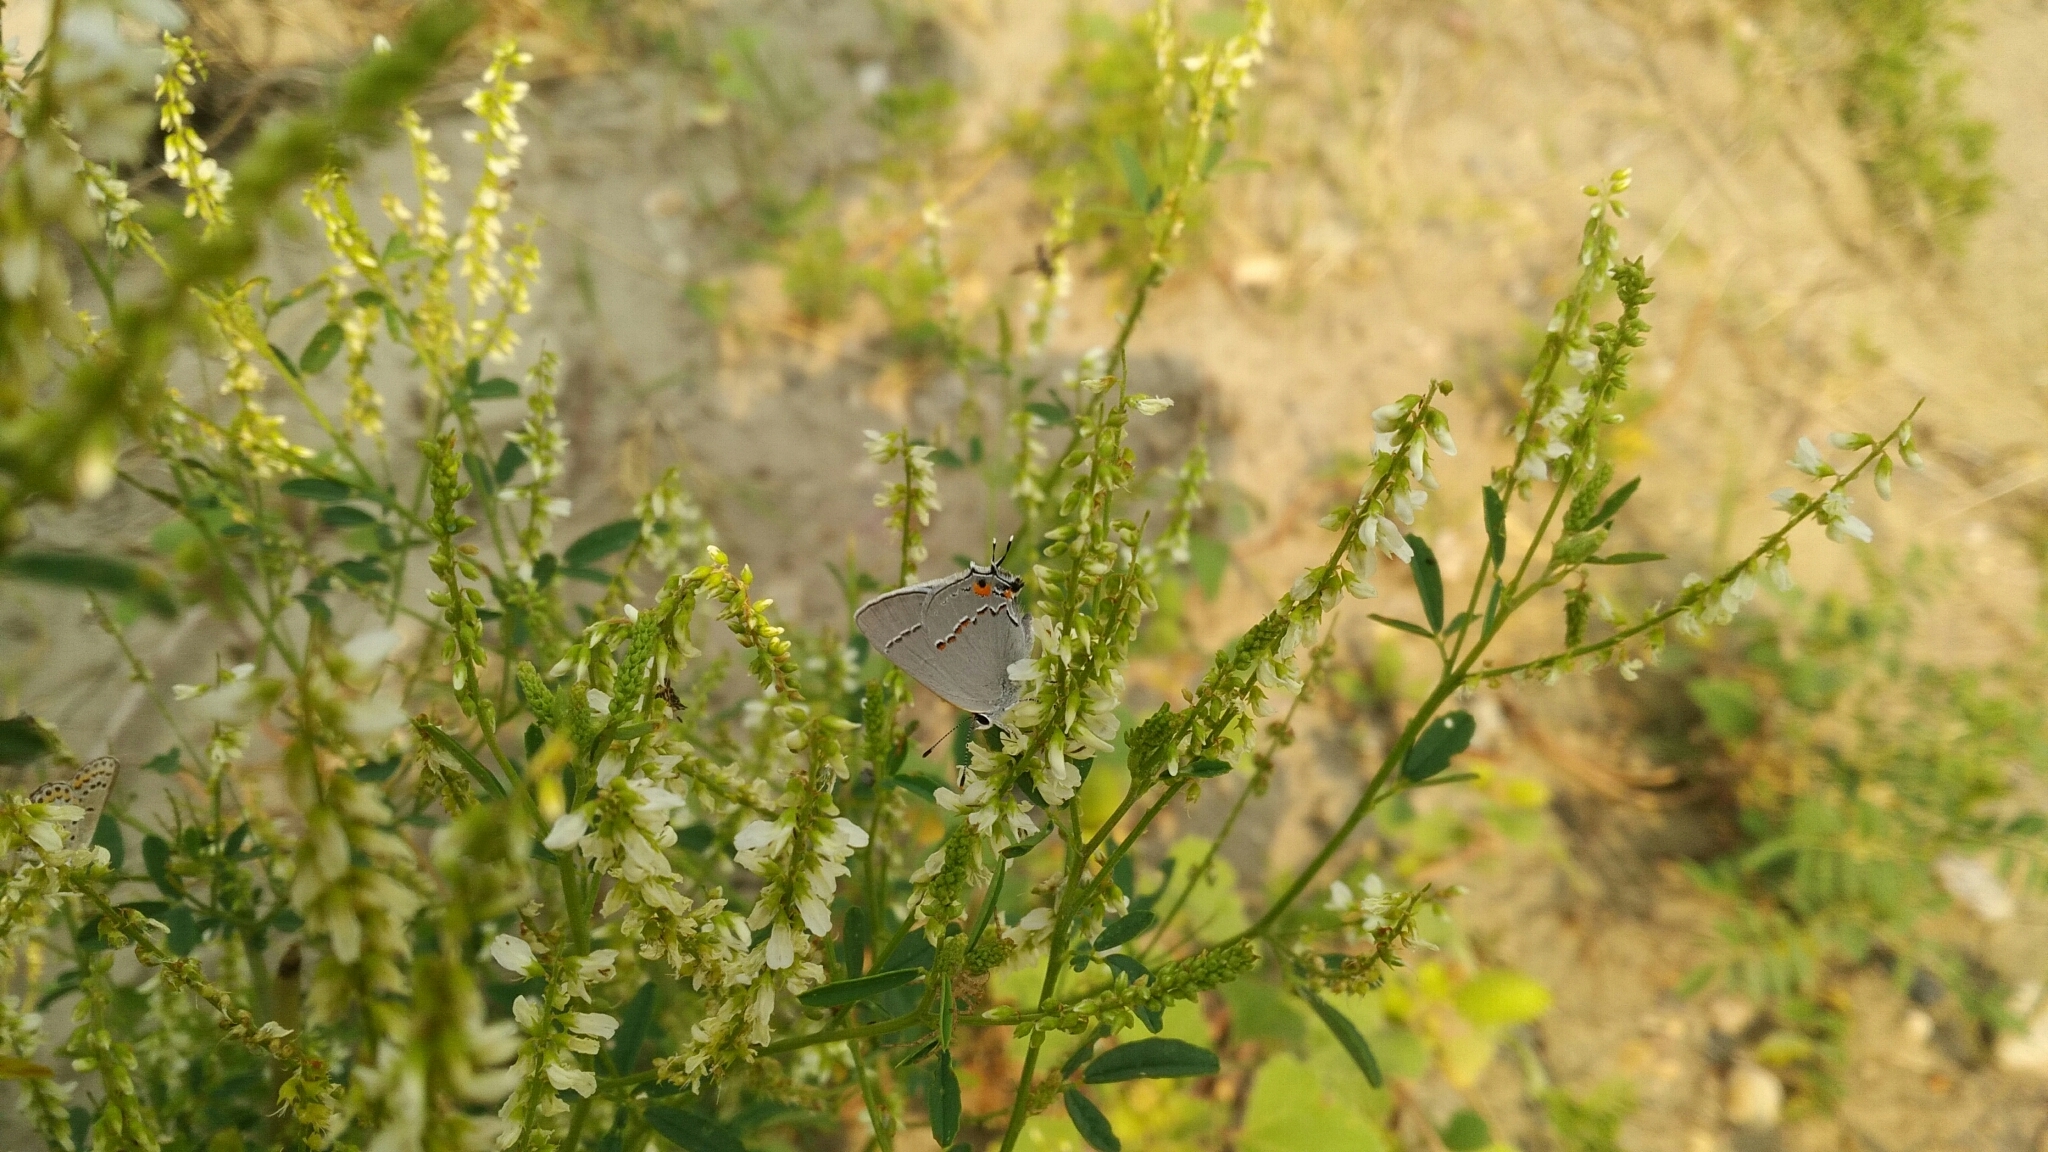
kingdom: Animalia
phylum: Arthropoda
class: Insecta
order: Lepidoptera
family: Lycaenidae
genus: Strymon
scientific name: Strymon melinus
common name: Gray hairstreak
